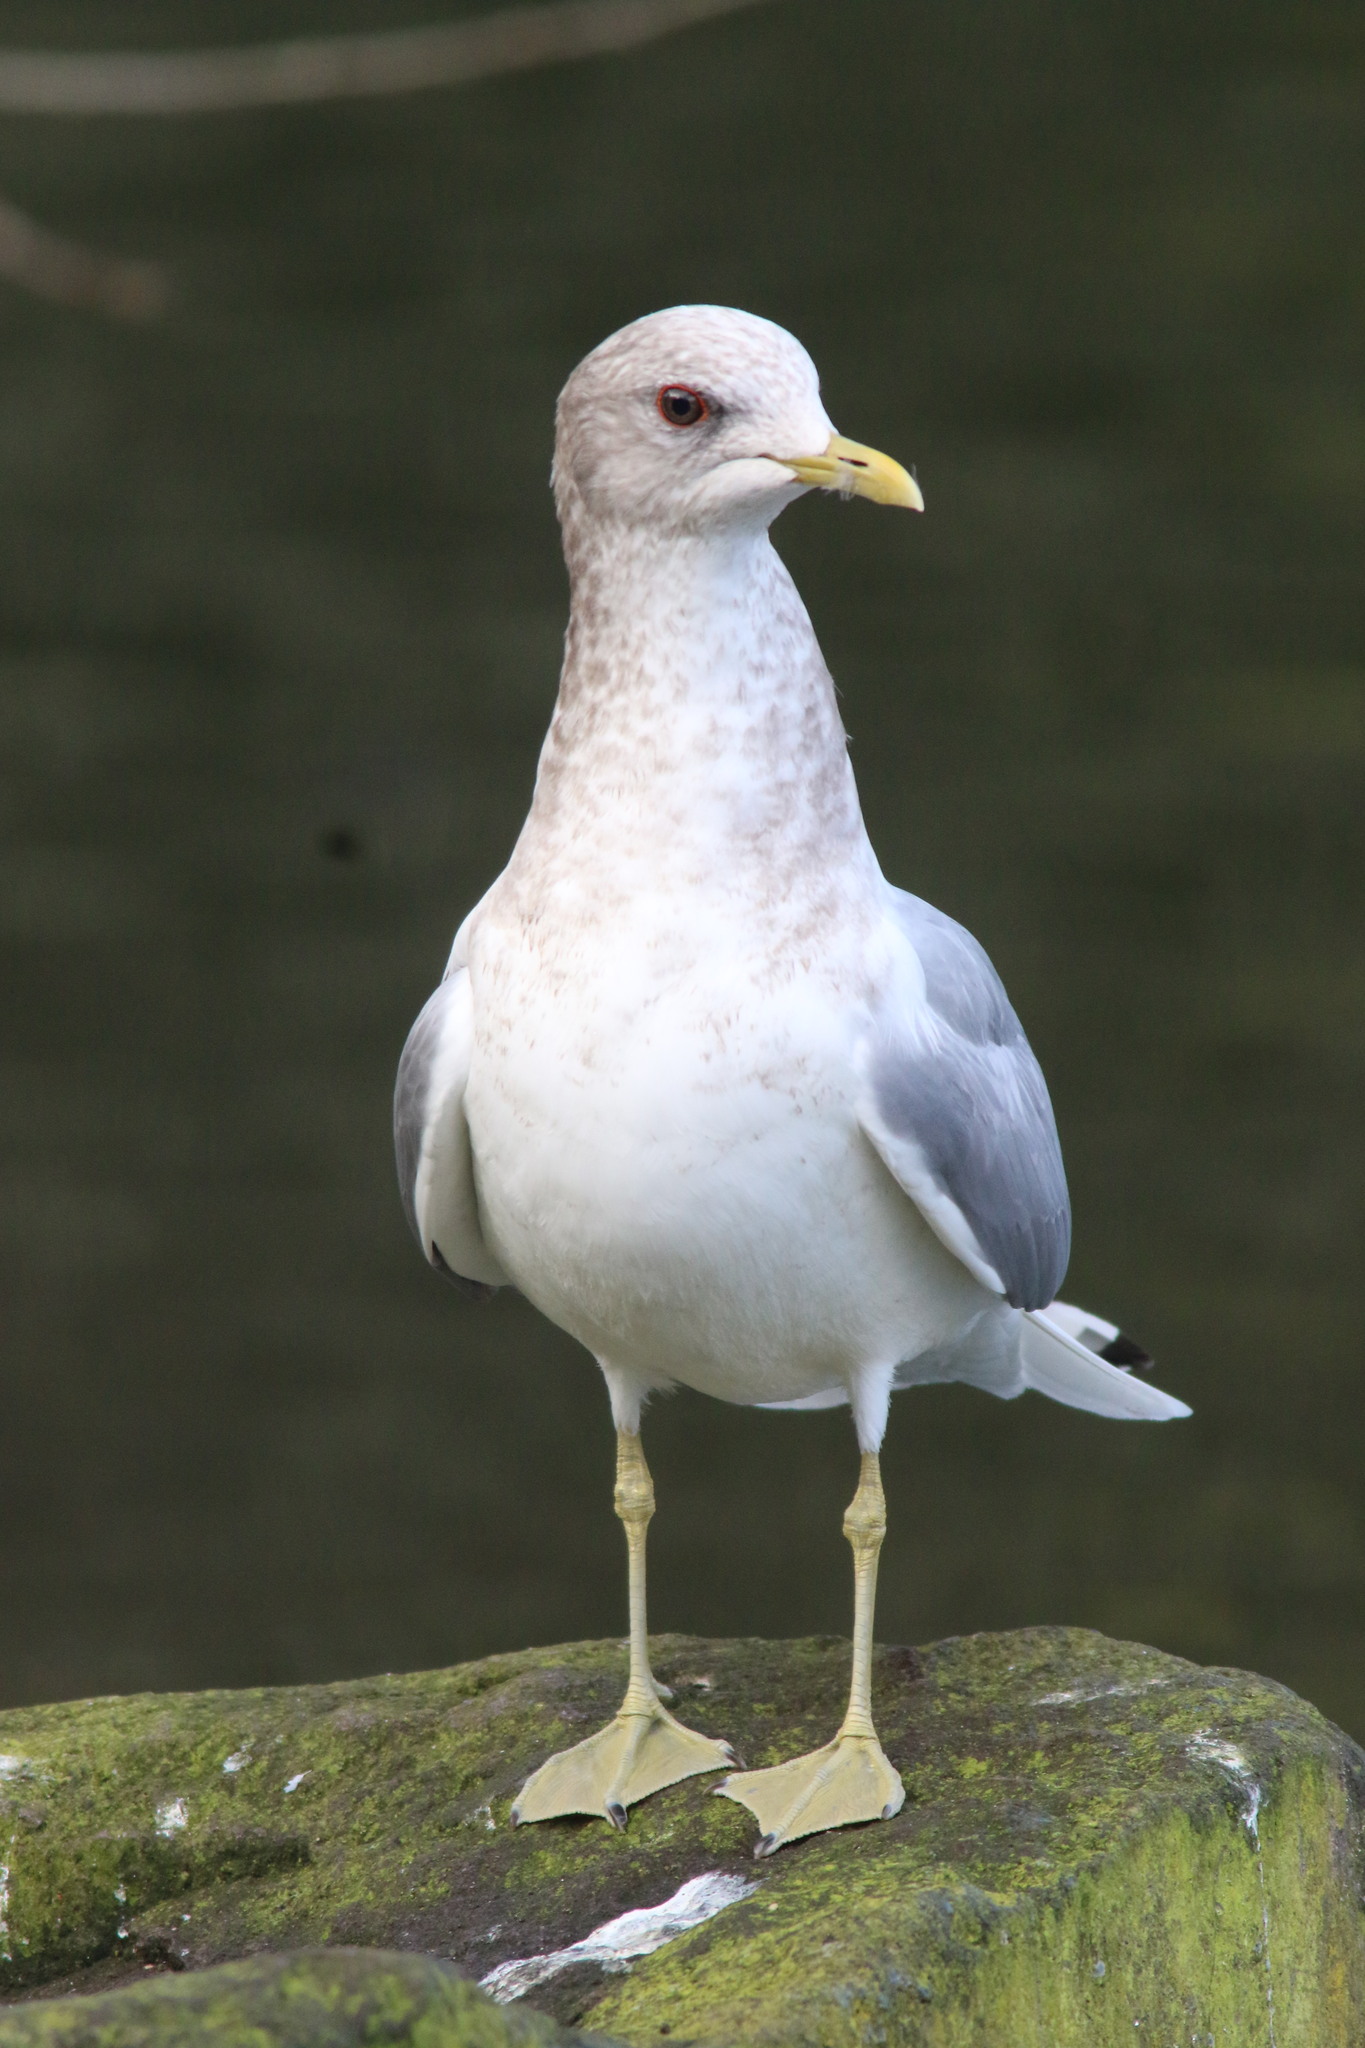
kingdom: Animalia
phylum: Chordata
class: Aves
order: Charadriiformes
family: Laridae
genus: Larus
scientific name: Larus brachyrhynchus
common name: Short-billed gull
